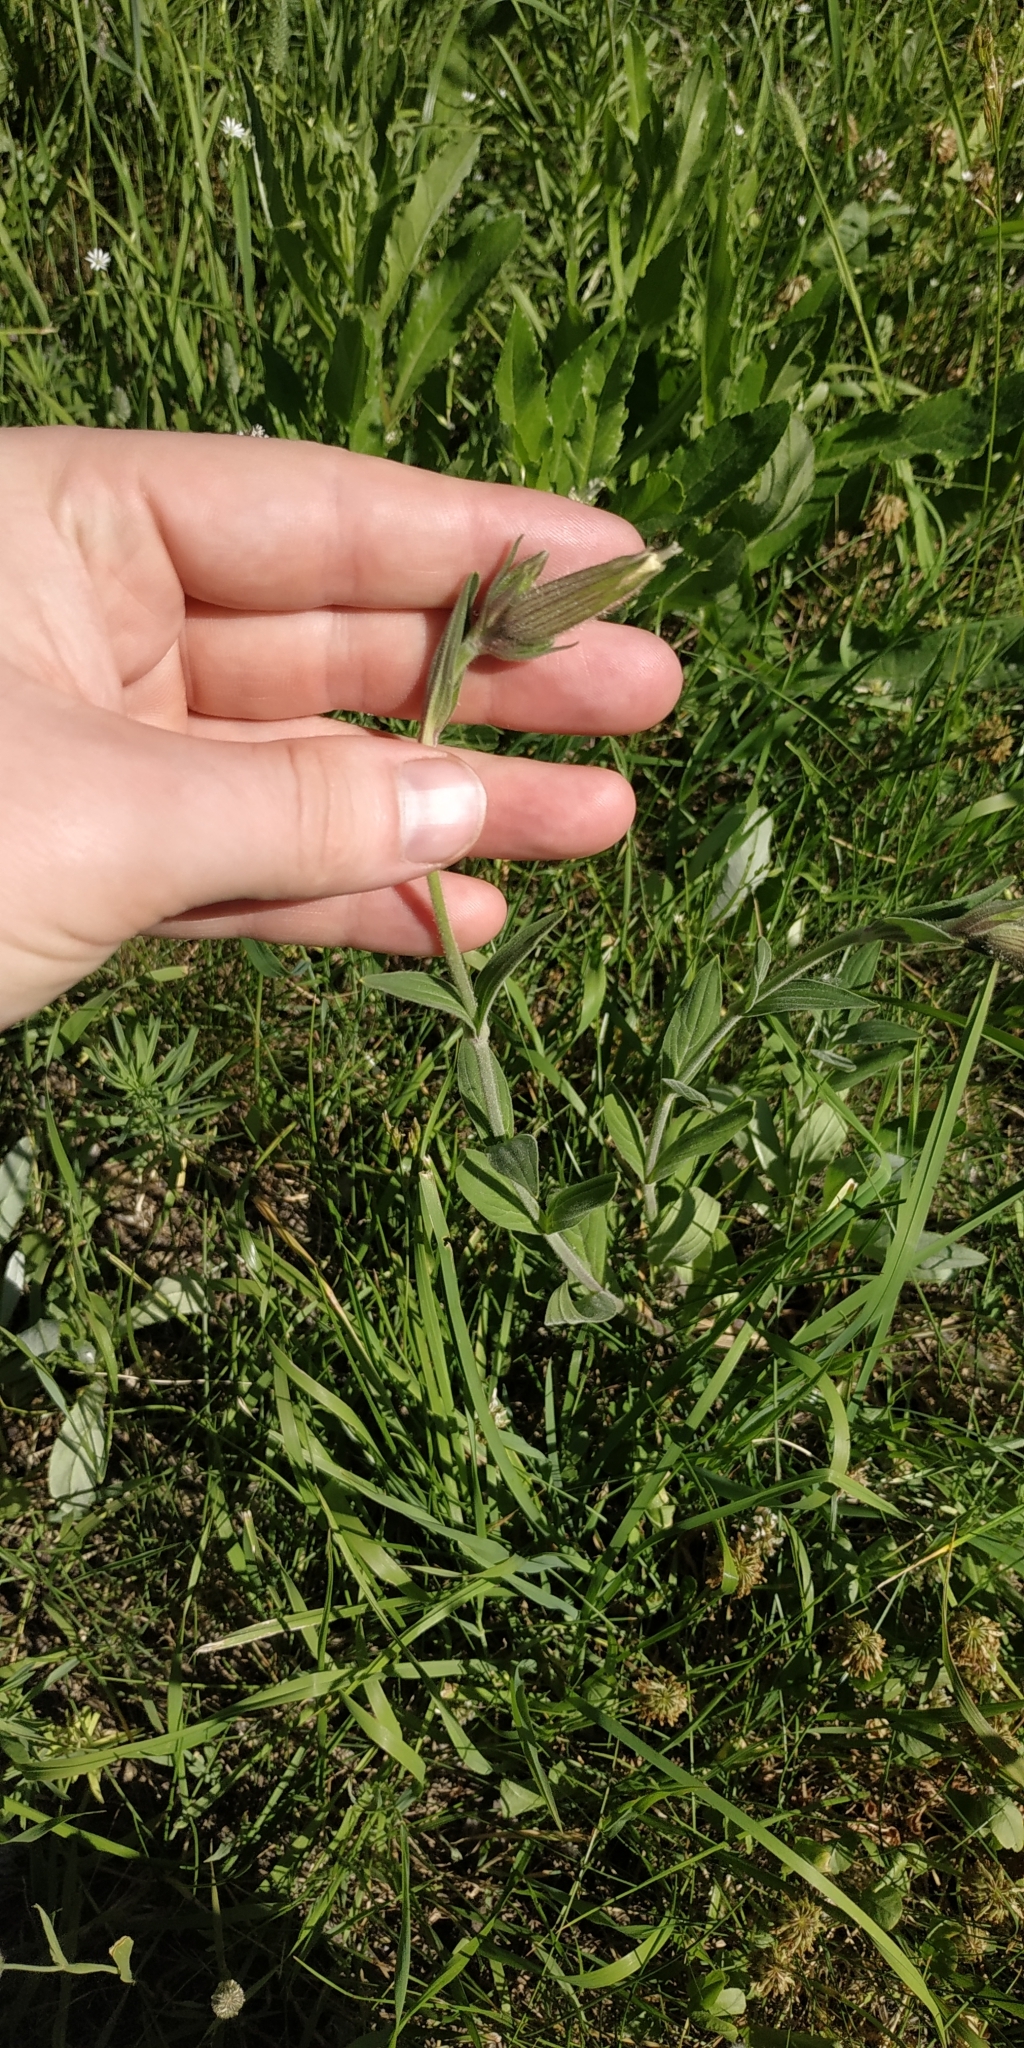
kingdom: Plantae
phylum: Tracheophyta
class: Magnoliopsida
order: Caryophyllales
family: Caryophyllaceae
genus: Silene
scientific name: Silene latifolia
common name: White campion
